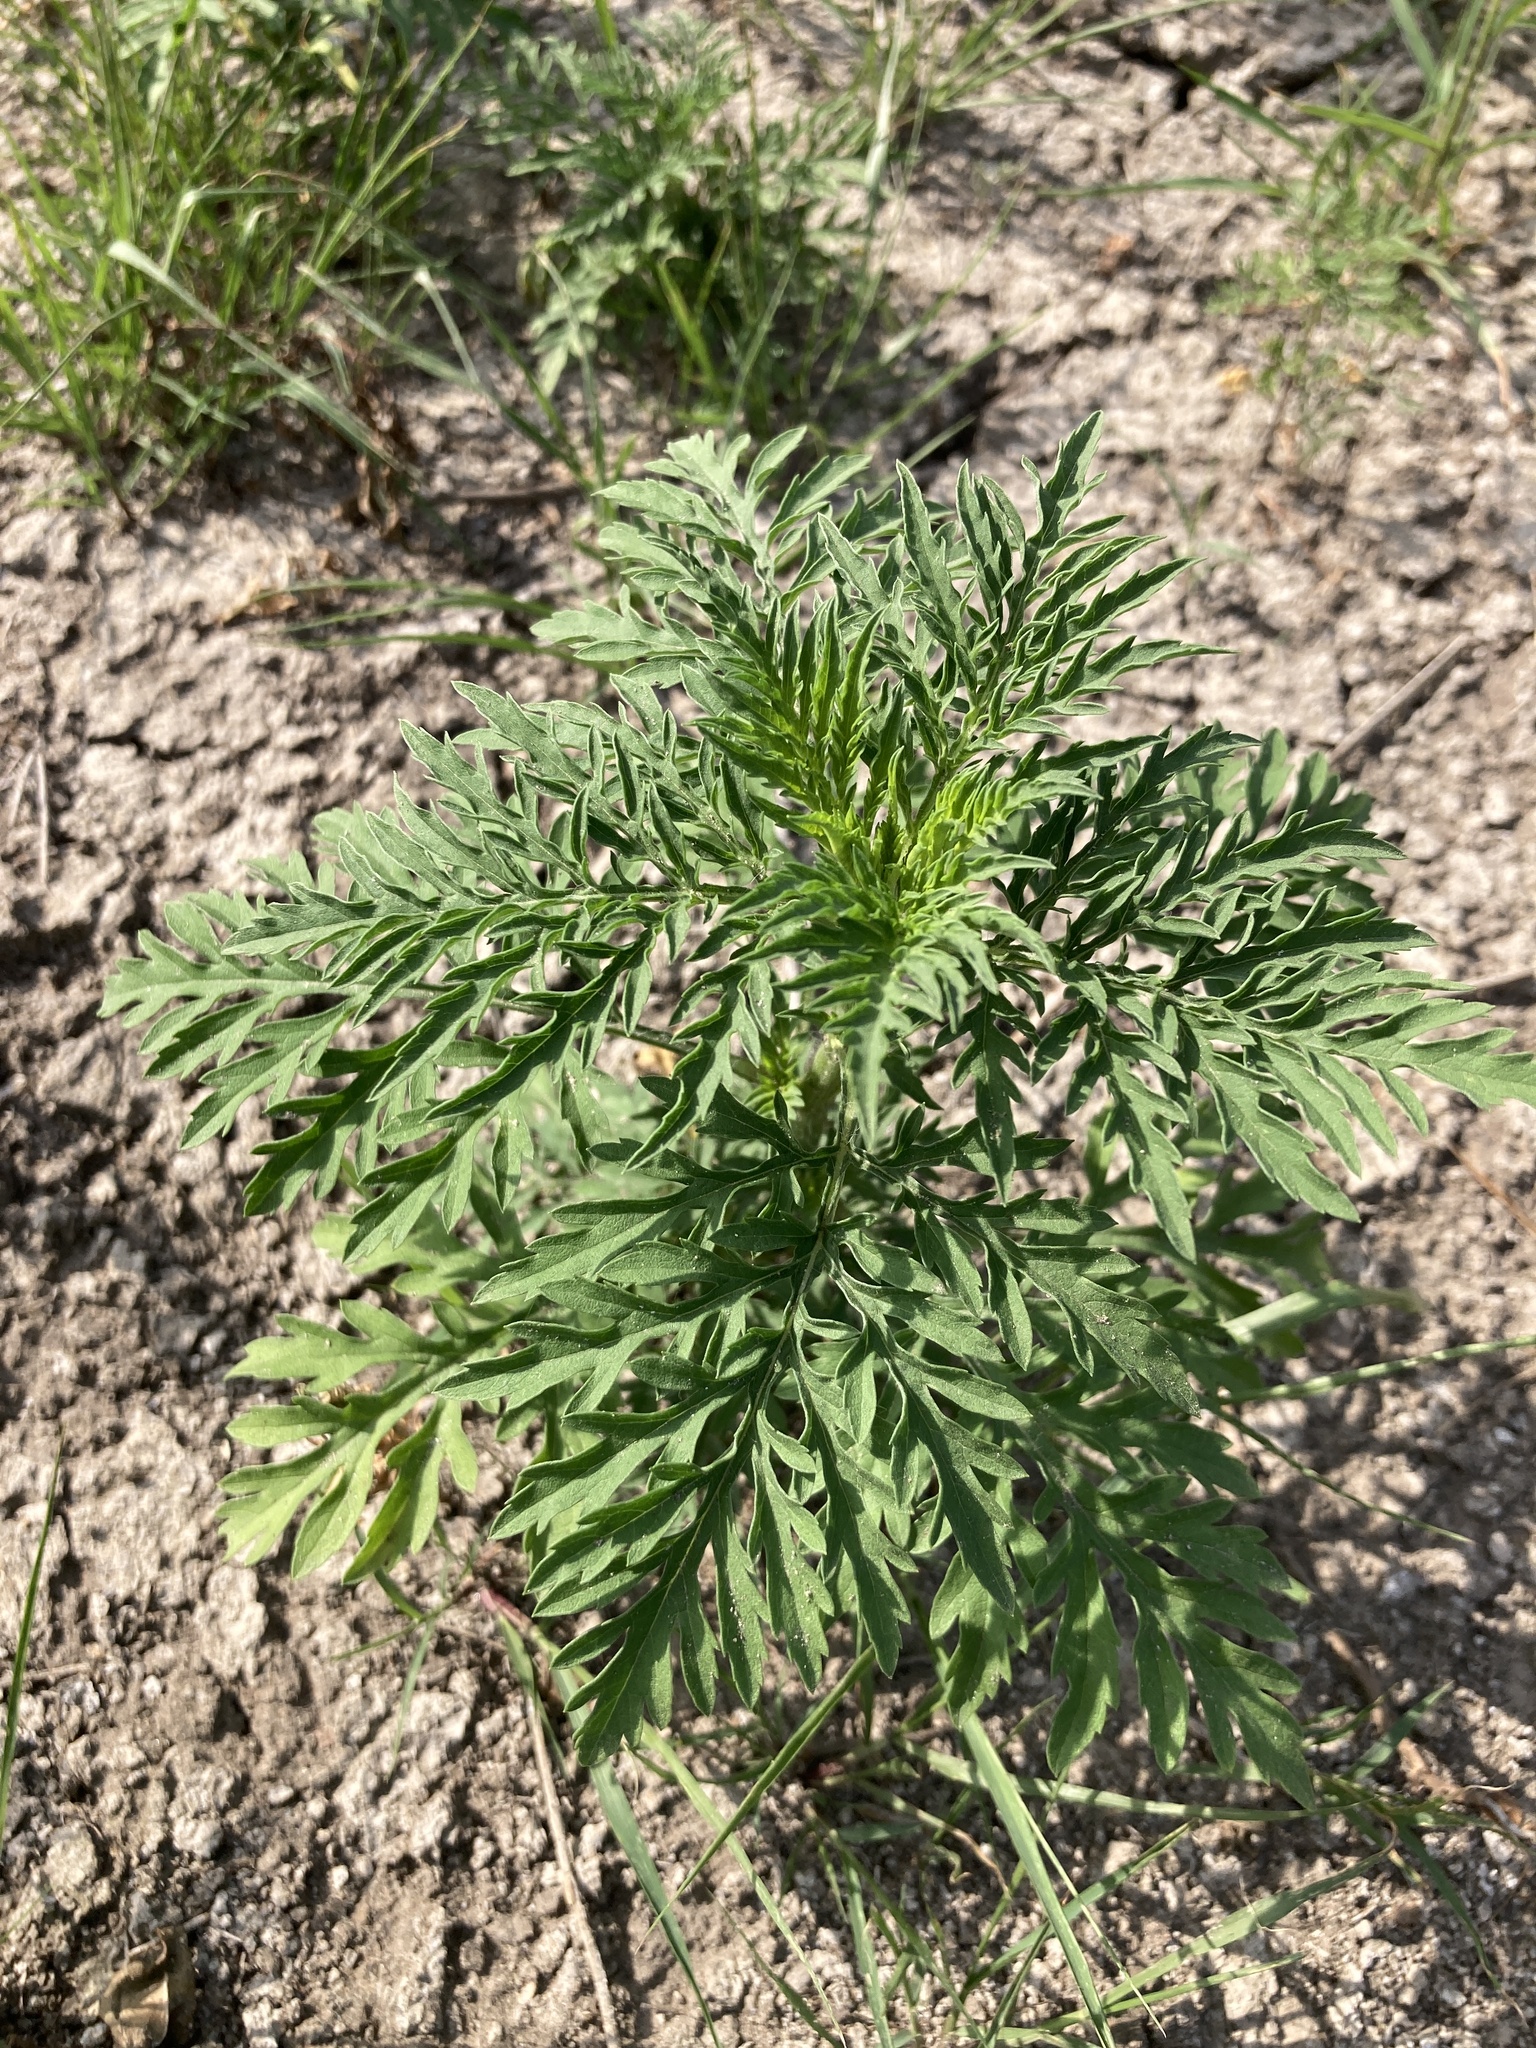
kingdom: Plantae
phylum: Tracheophyta
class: Magnoliopsida
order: Asterales
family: Asteraceae
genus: Ambrosia
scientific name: Ambrosia artemisiifolia
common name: Annual ragweed
